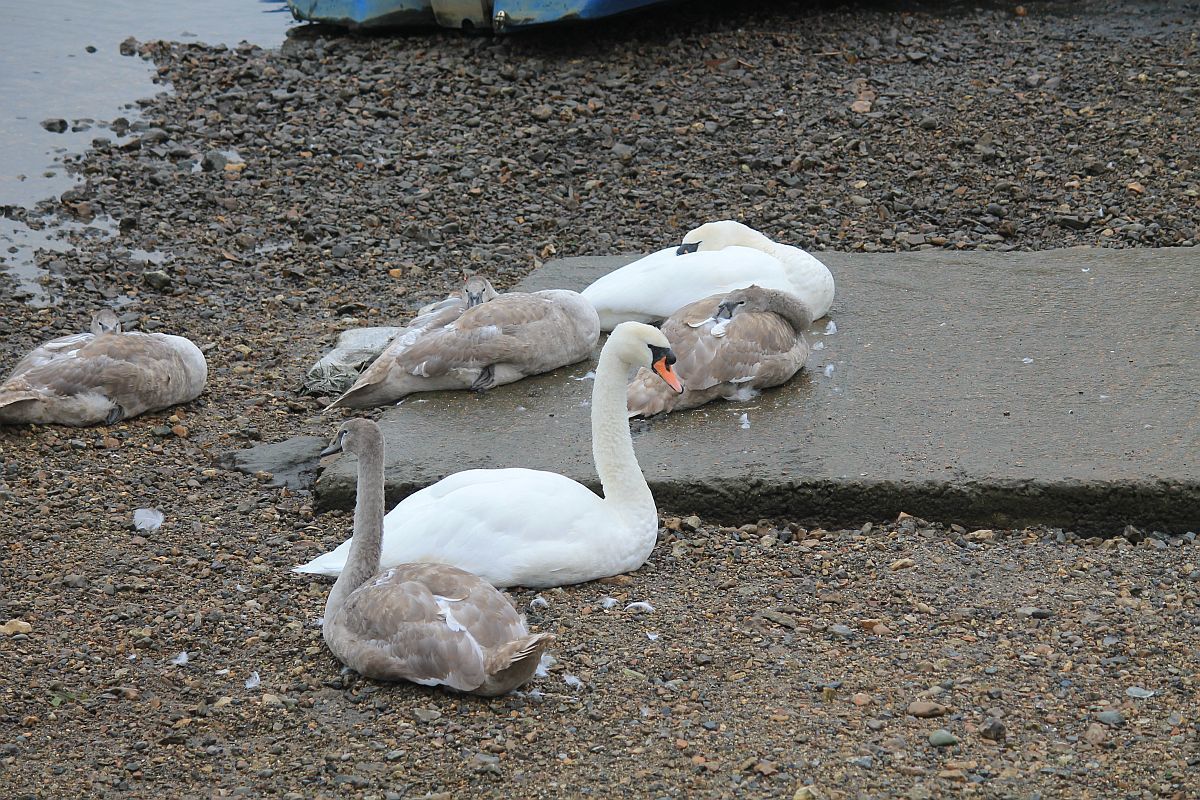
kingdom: Animalia
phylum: Chordata
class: Aves
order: Anseriformes
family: Anatidae
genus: Cygnus
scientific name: Cygnus olor
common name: Mute swan
